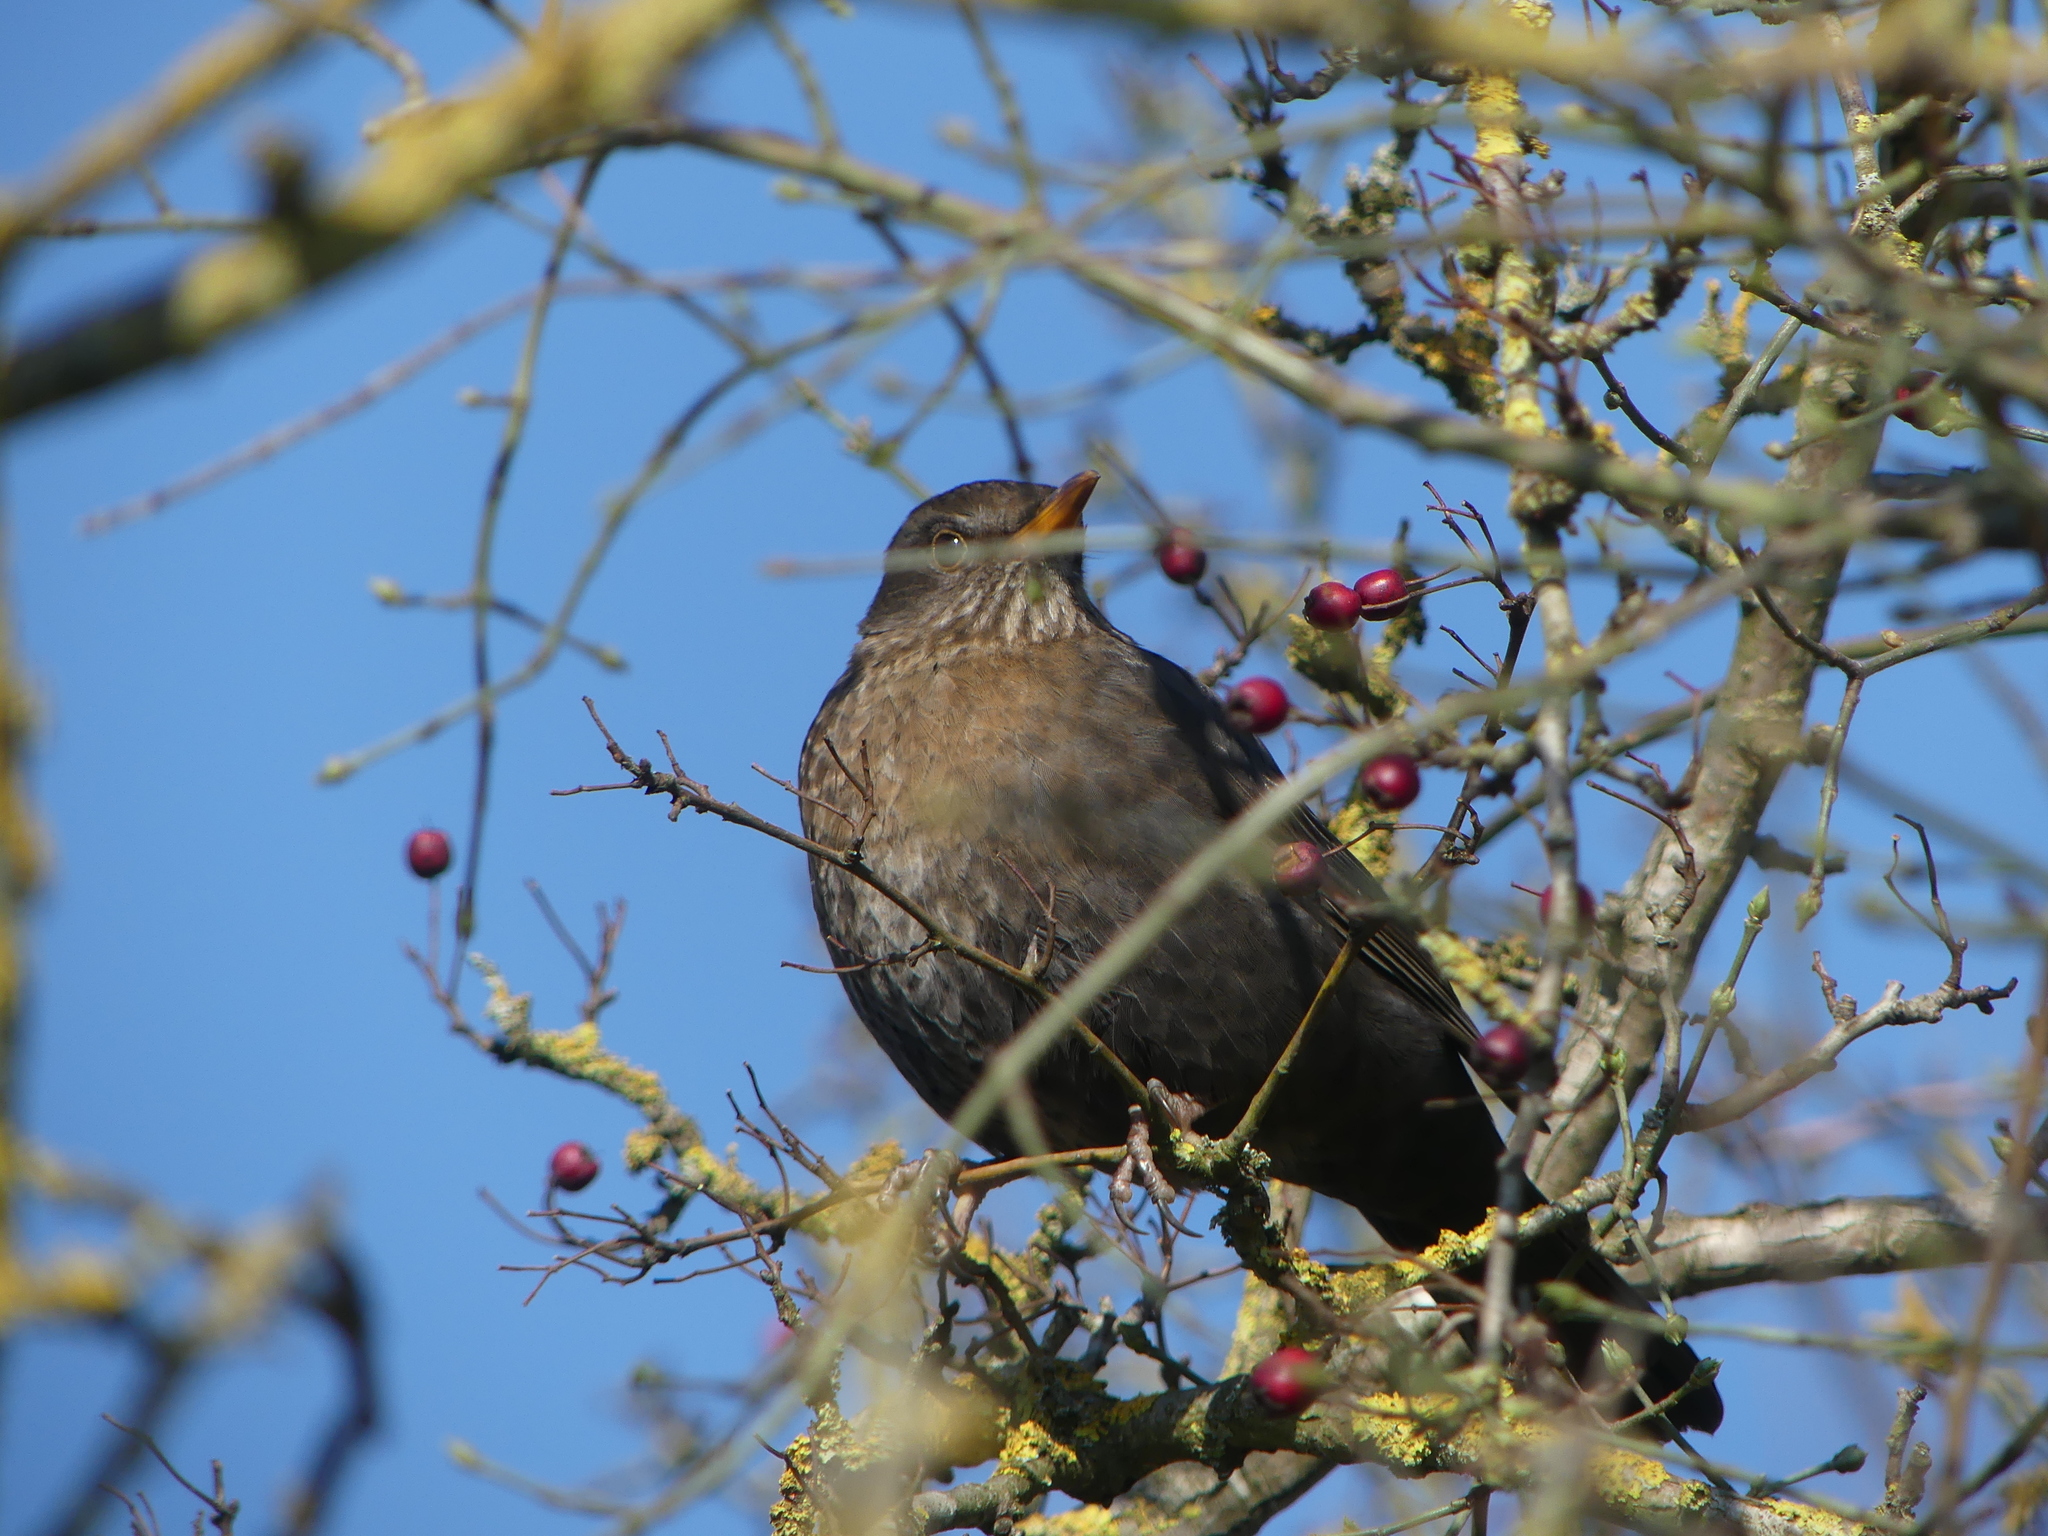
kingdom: Animalia
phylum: Chordata
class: Aves
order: Passeriformes
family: Turdidae
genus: Turdus
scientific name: Turdus merula
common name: Common blackbird
